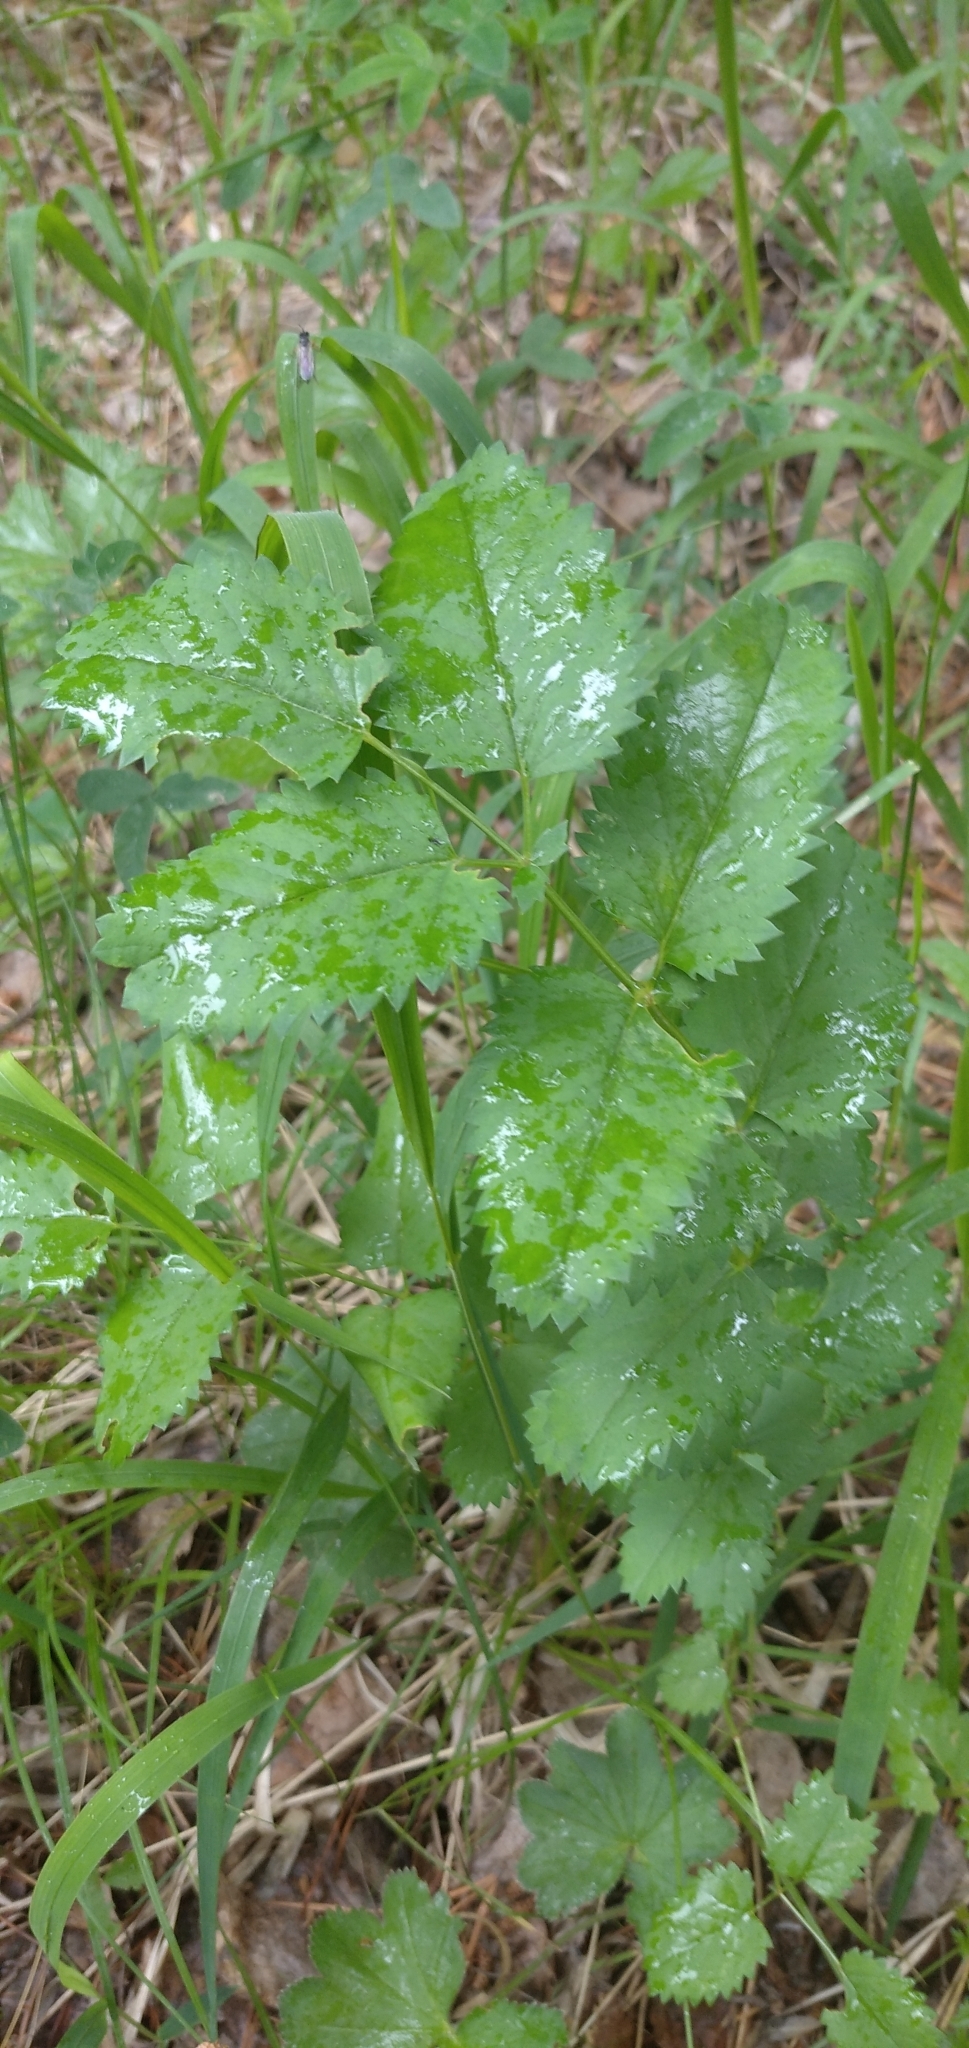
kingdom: Plantae
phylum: Tracheophyta
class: Magnoliopsida
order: Rosales
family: Rosaceae
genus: Sanguisorba
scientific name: Sanguisorba officinalis
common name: Great burnet
